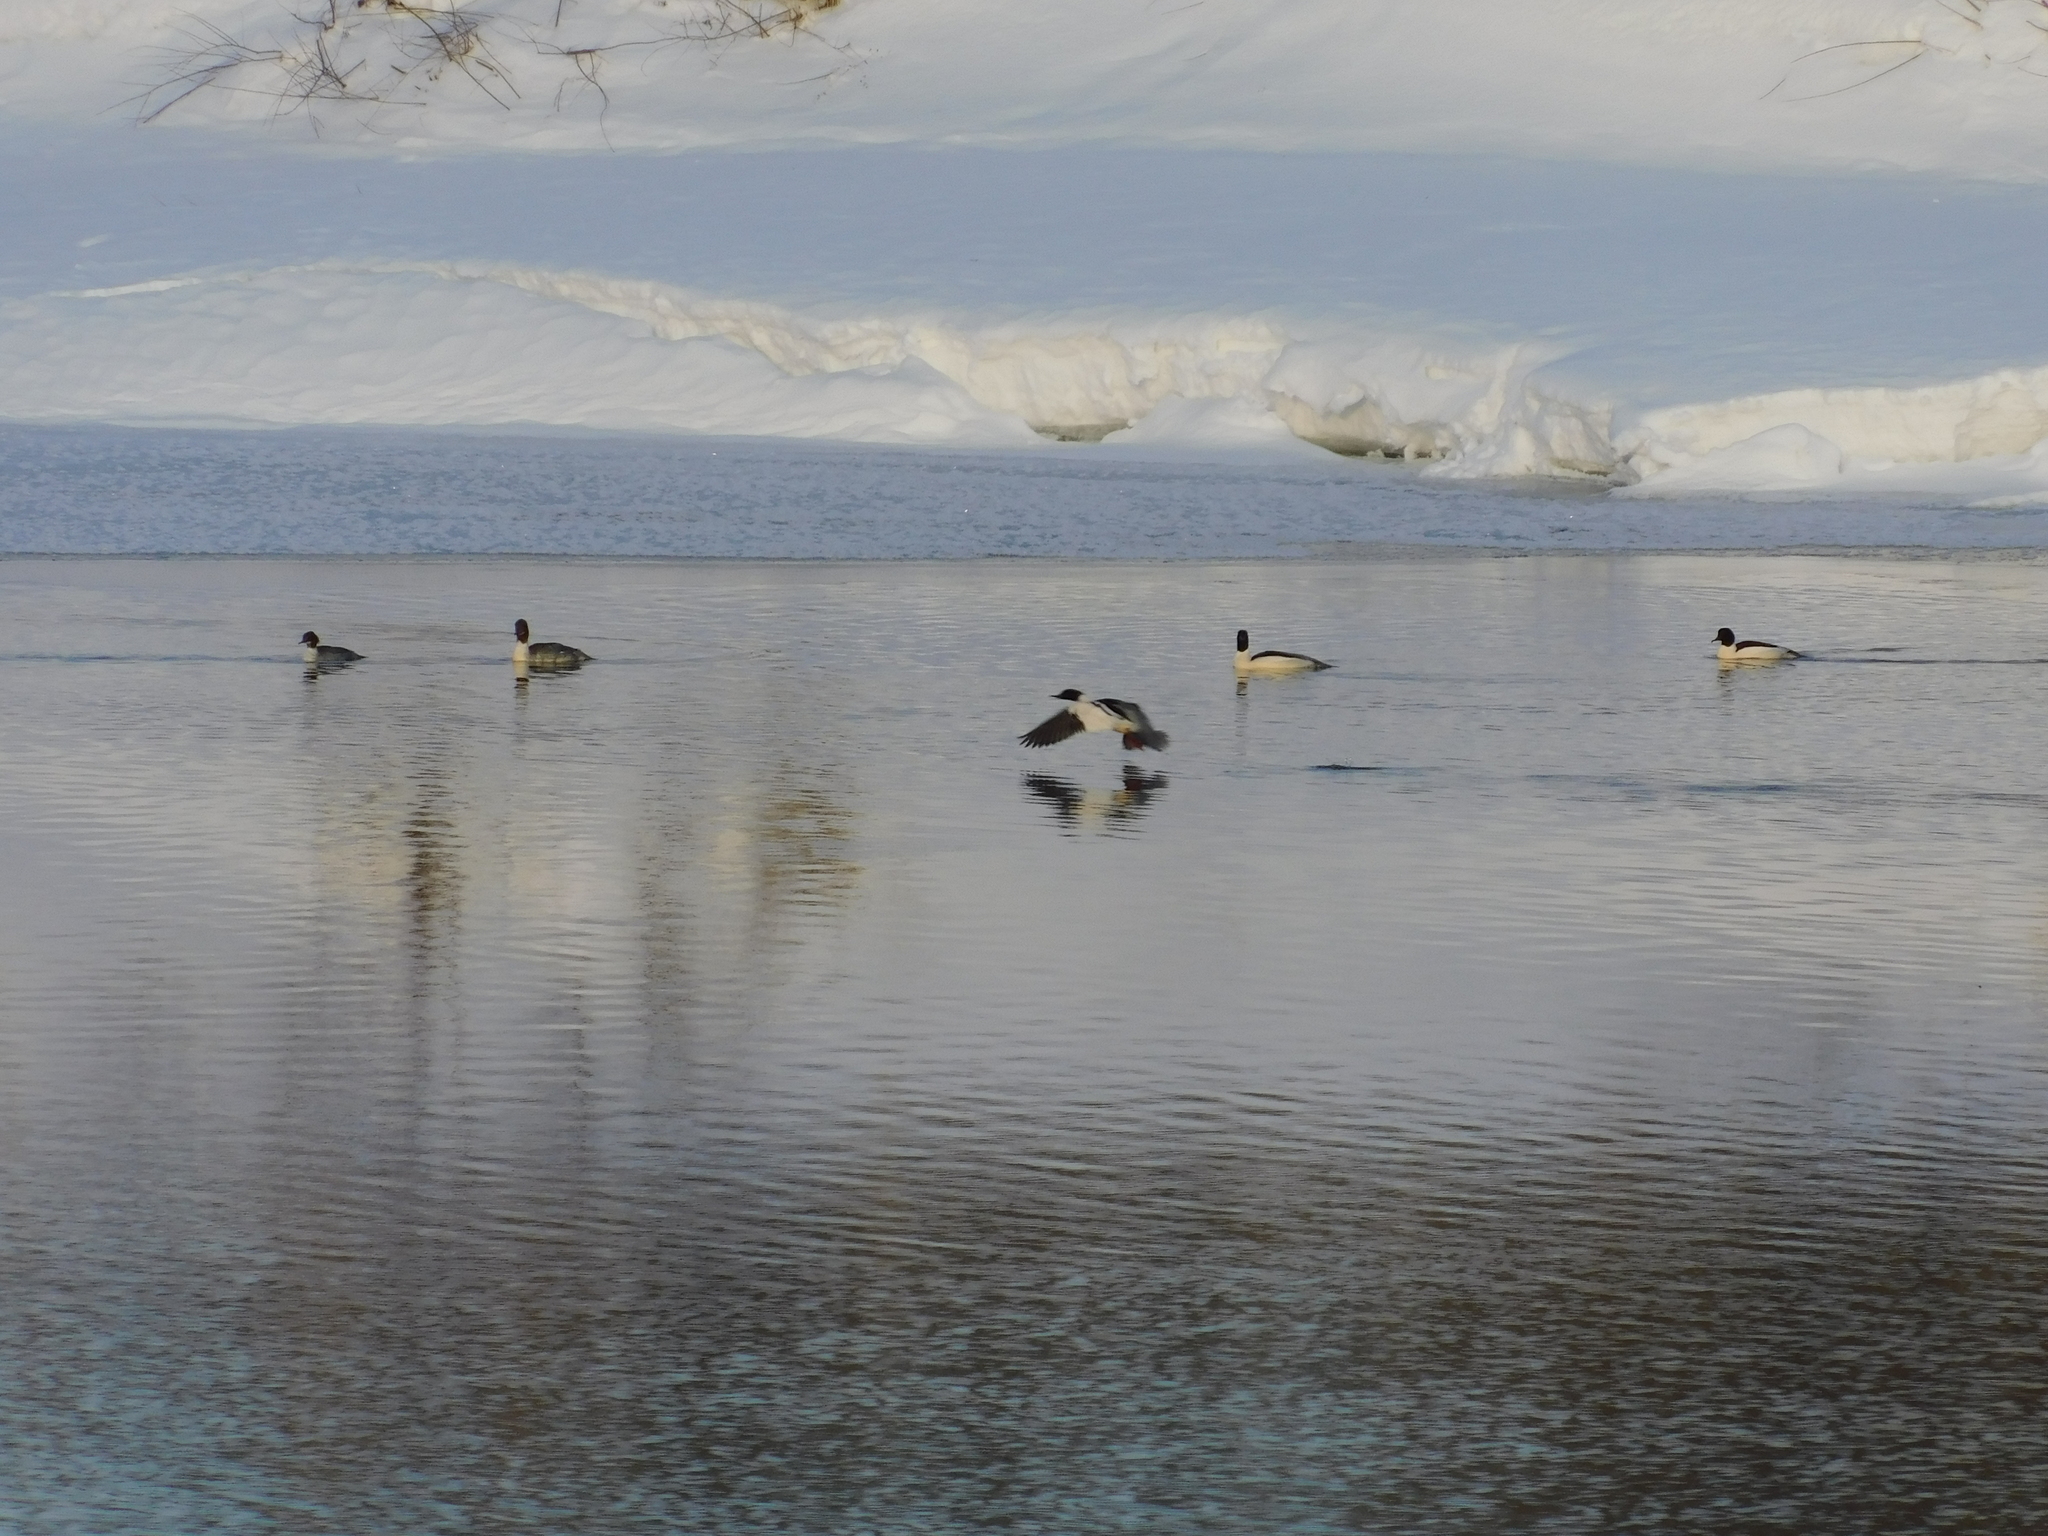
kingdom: Animalia
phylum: Chordata
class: Aves
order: Anseriformes
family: Anatidae
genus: Mergus
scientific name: Mergus merganser
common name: Common merganser
